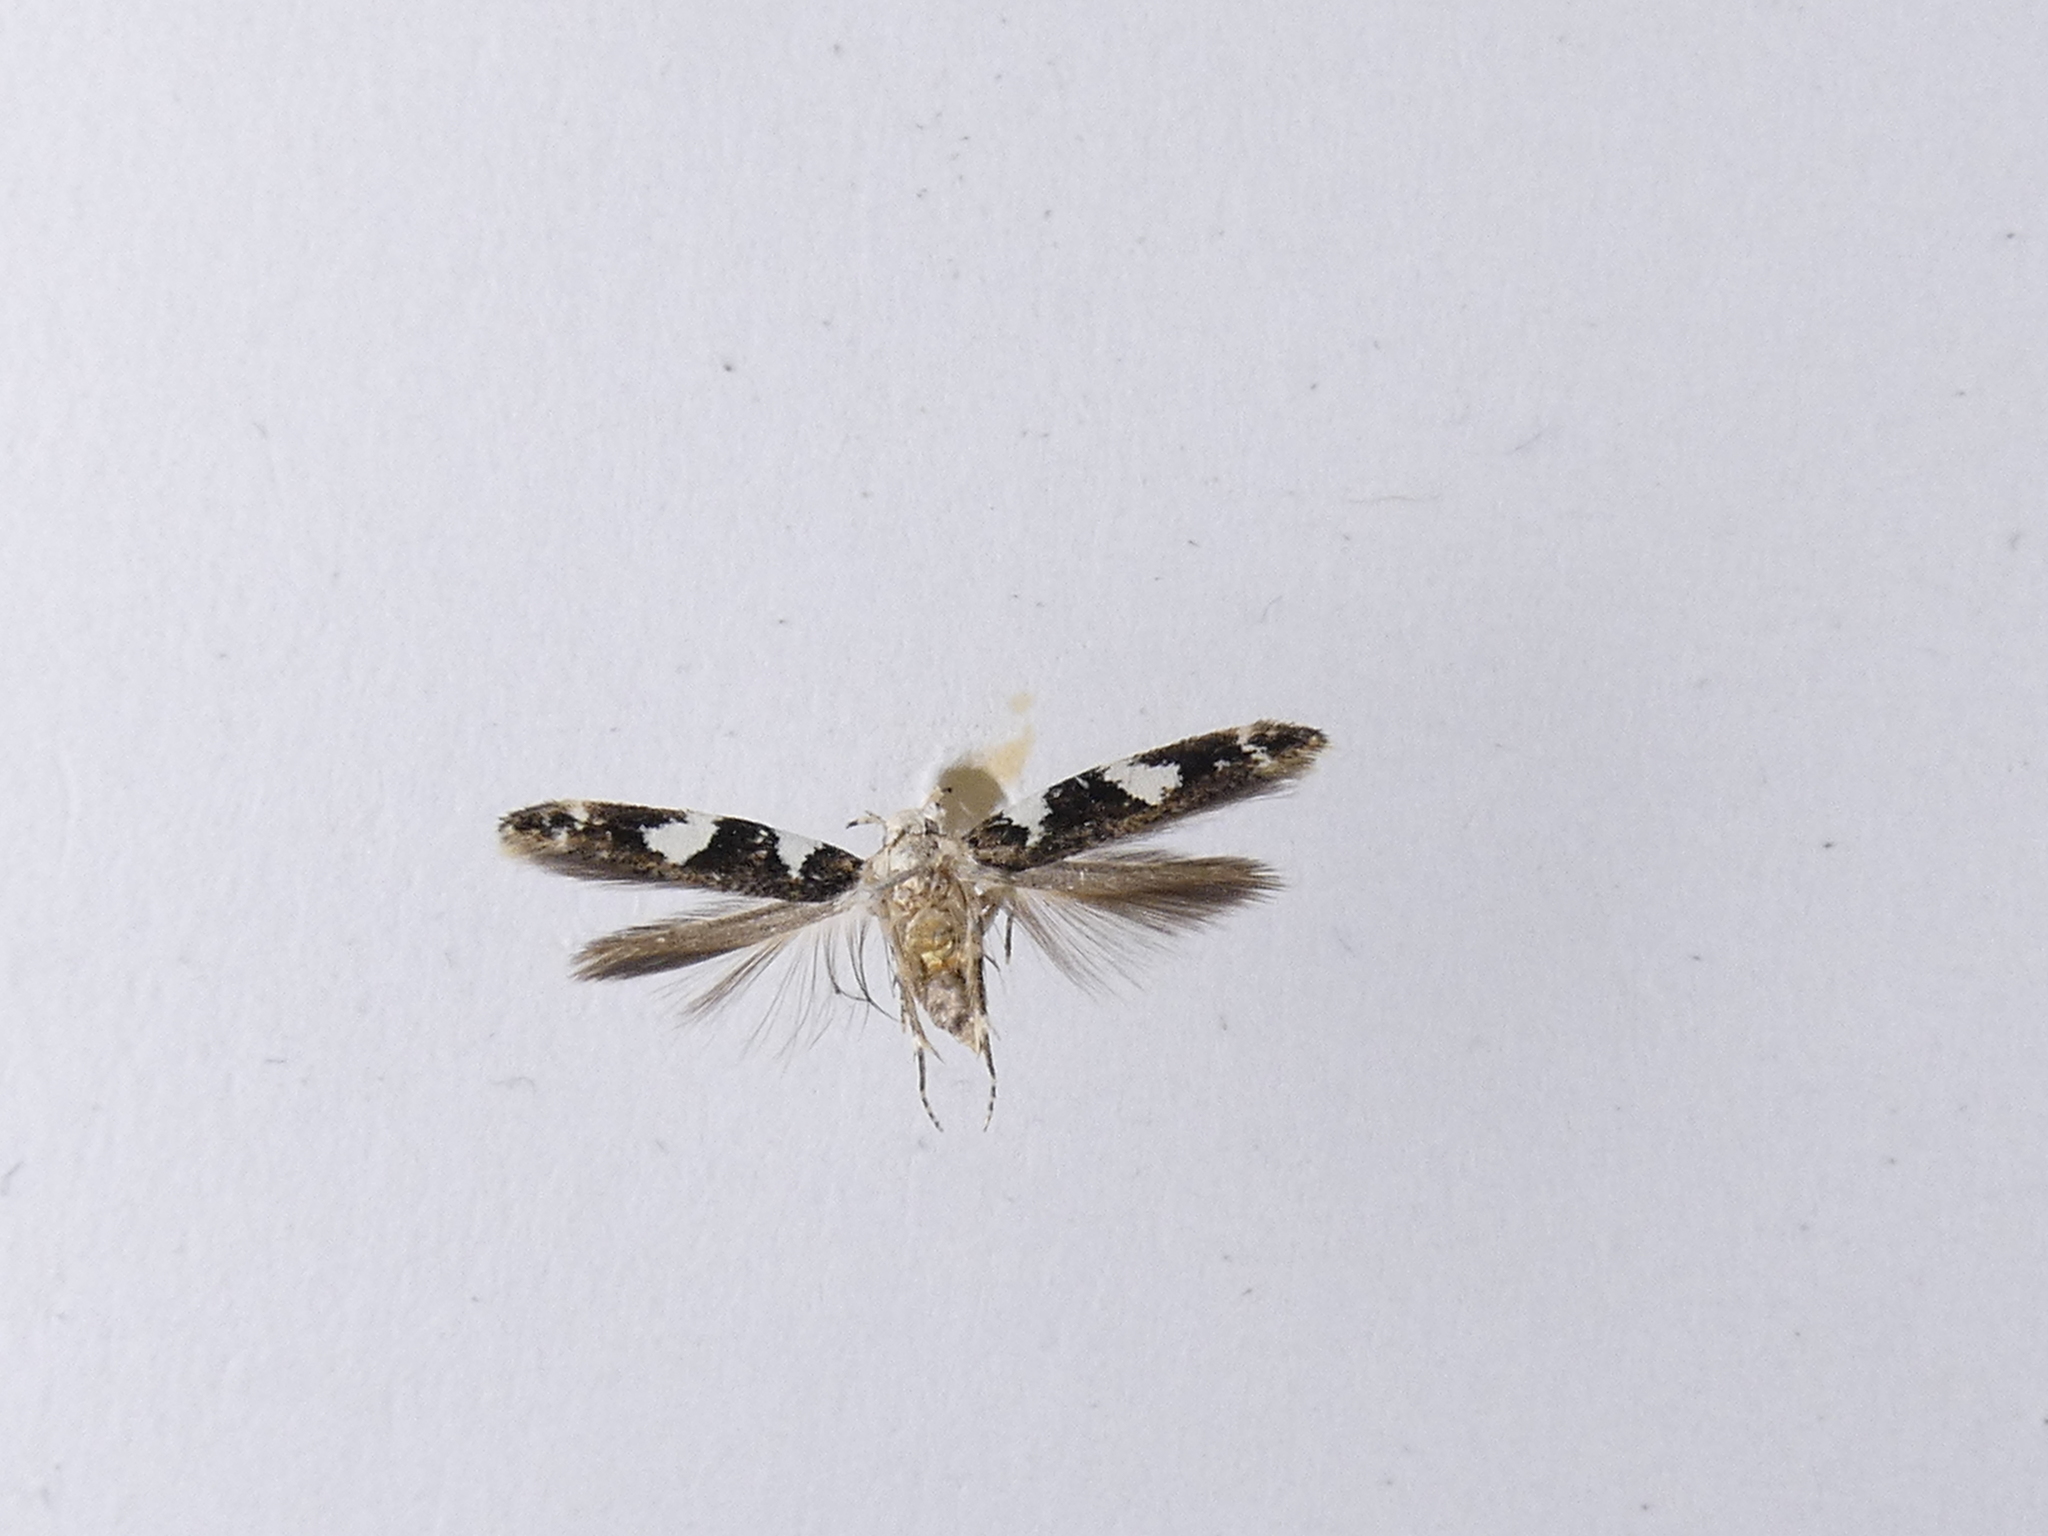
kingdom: Animalia
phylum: Arthropoda
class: Insecta
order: Lepidoptera
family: Cosmopterigidae
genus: Pyroderces
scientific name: Pyroderces deamatella
